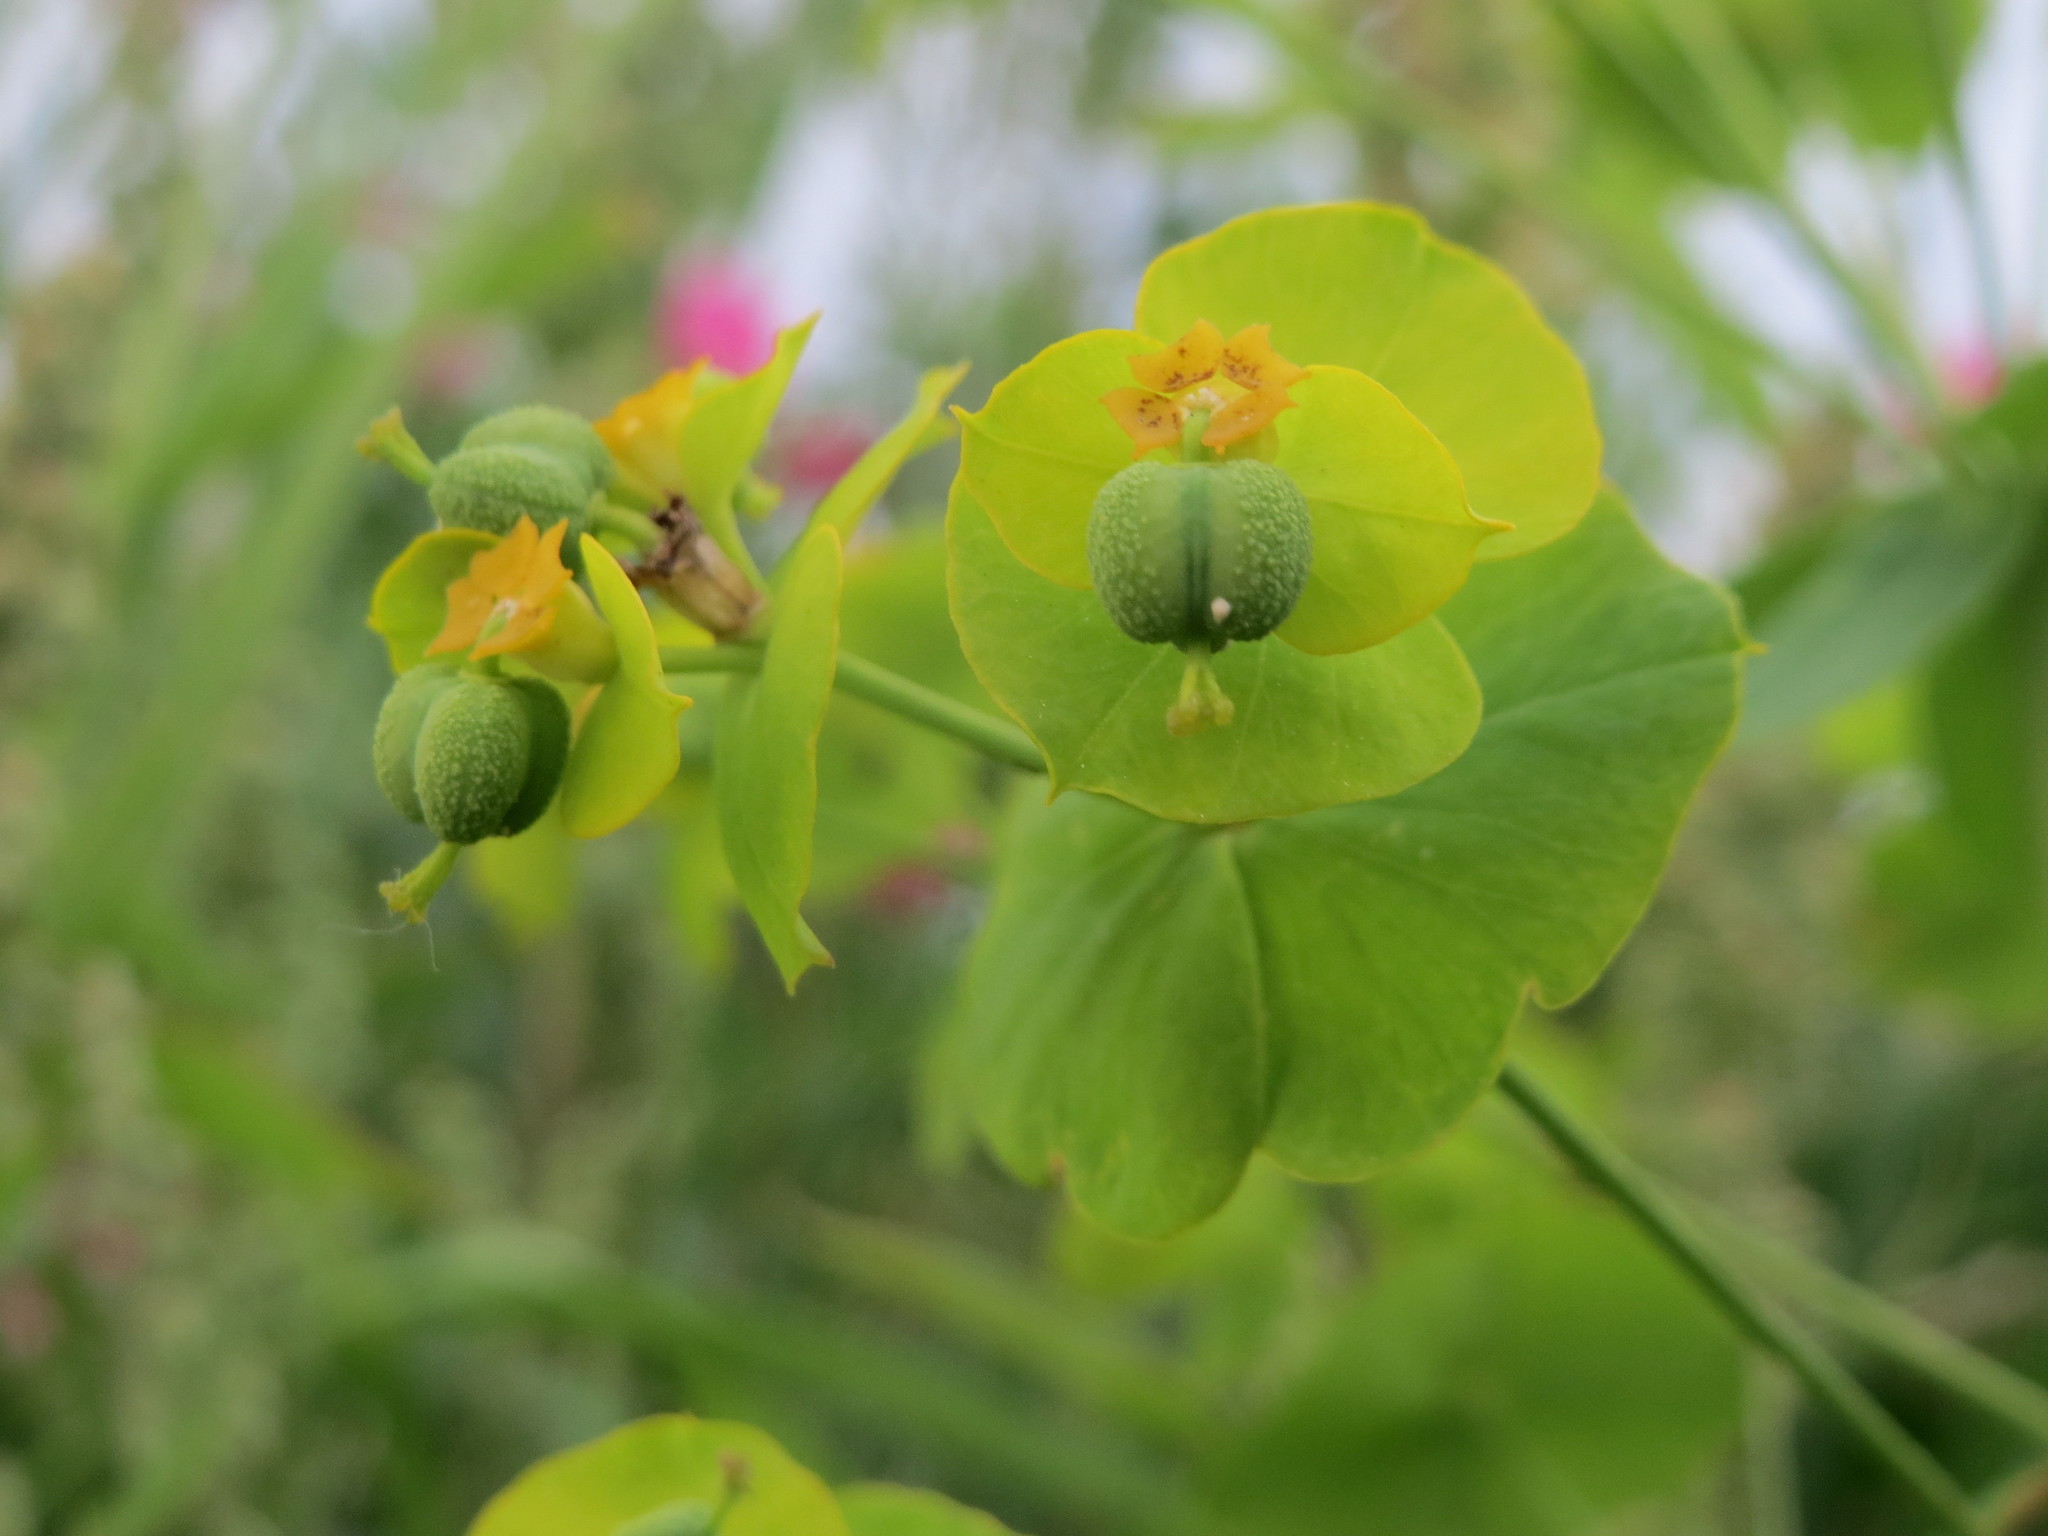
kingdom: Plantae
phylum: Tracheophyta
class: Magnoliopsida
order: Malpighiales
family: Euphorbiaceae
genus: Euphorbia
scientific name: Euphorbia esula
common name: Leafy spurge
